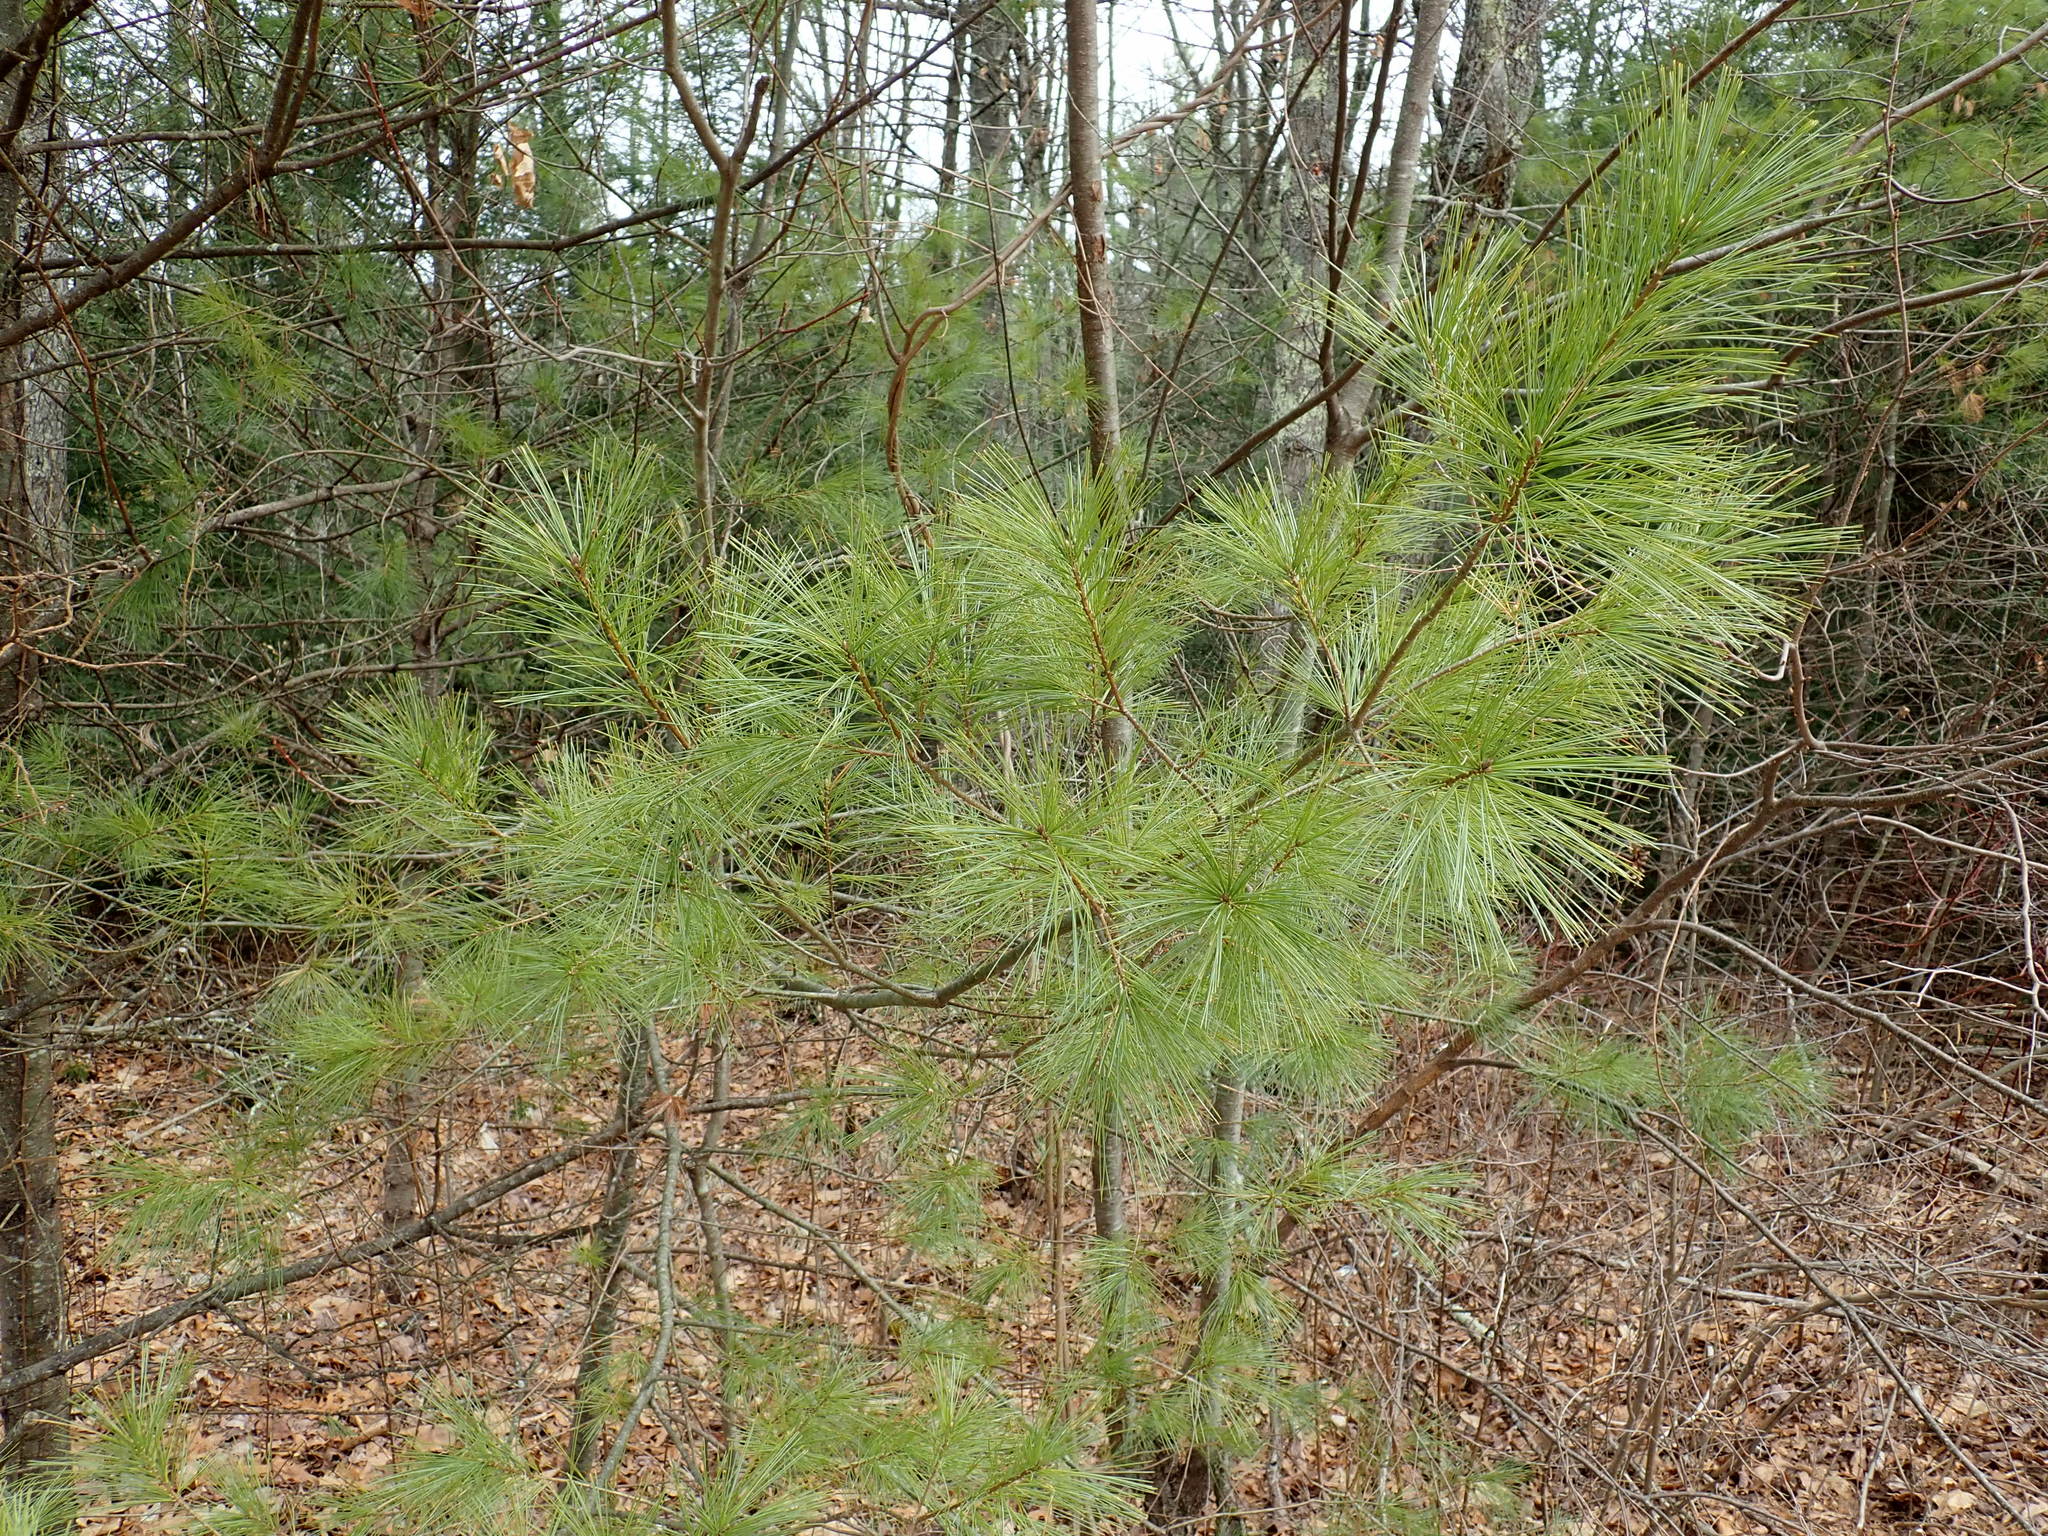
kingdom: Plantae
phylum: Tracheophyta
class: Pinopsida
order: Pinales
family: Pinaceae
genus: Pinus
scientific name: Pinus strobus
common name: Weymouth pine
